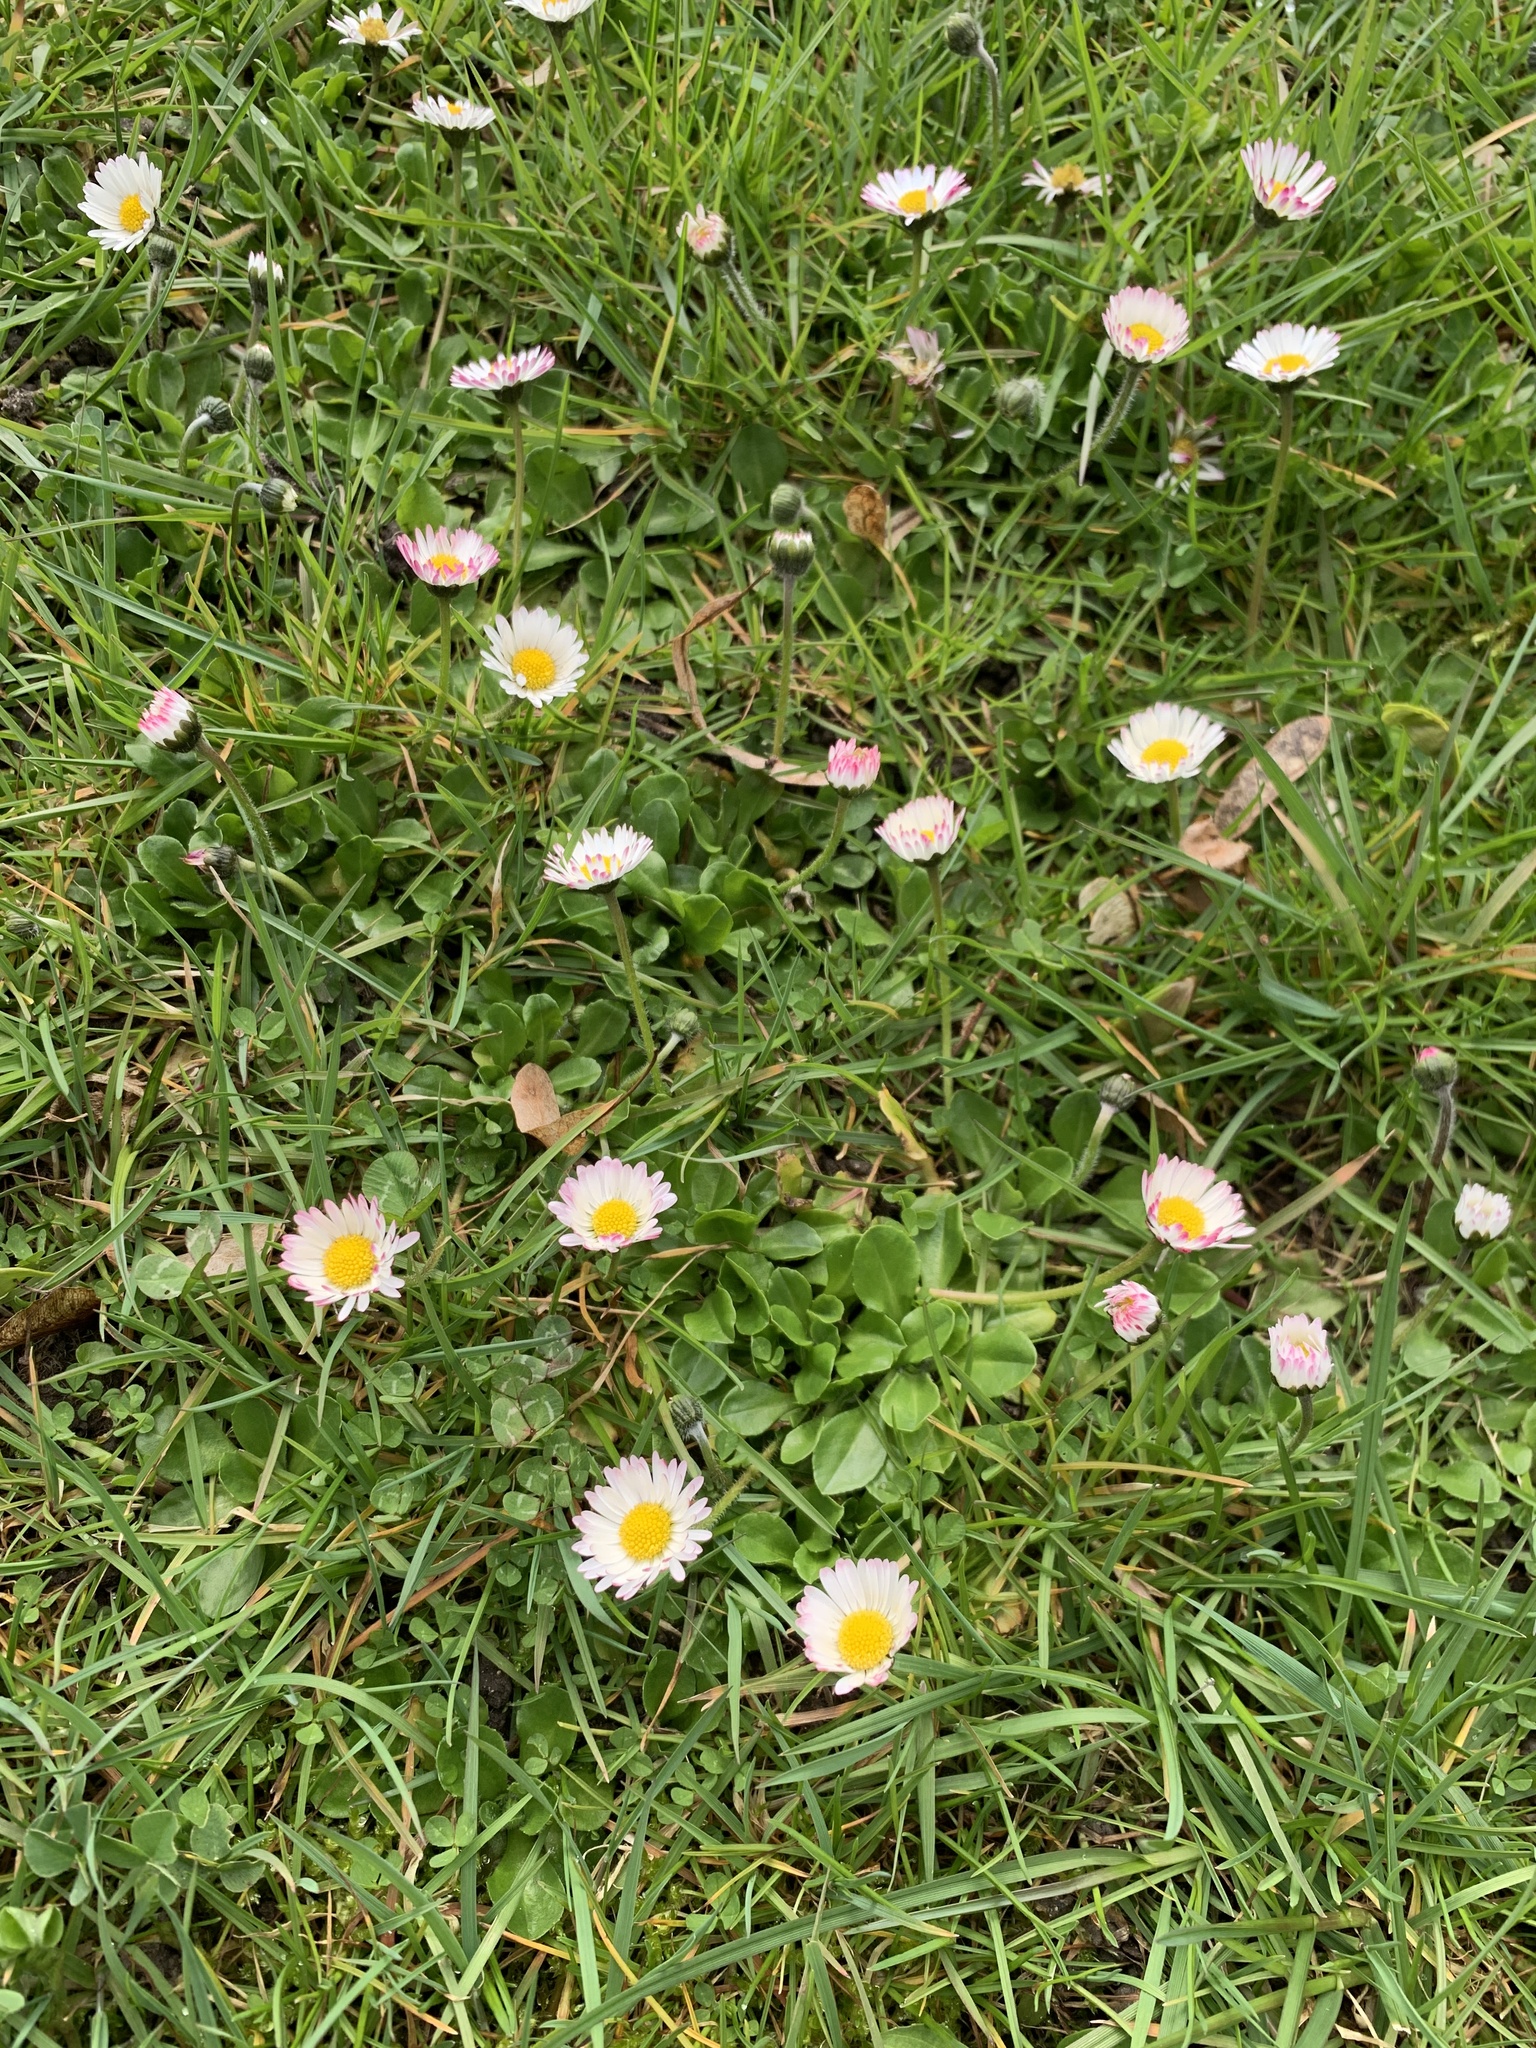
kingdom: Plantae
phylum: Tracheophyta
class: Magnoliopsida
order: Asterales
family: Asteraceae
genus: Bellis
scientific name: Bellis perennis
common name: Lawndaisy
